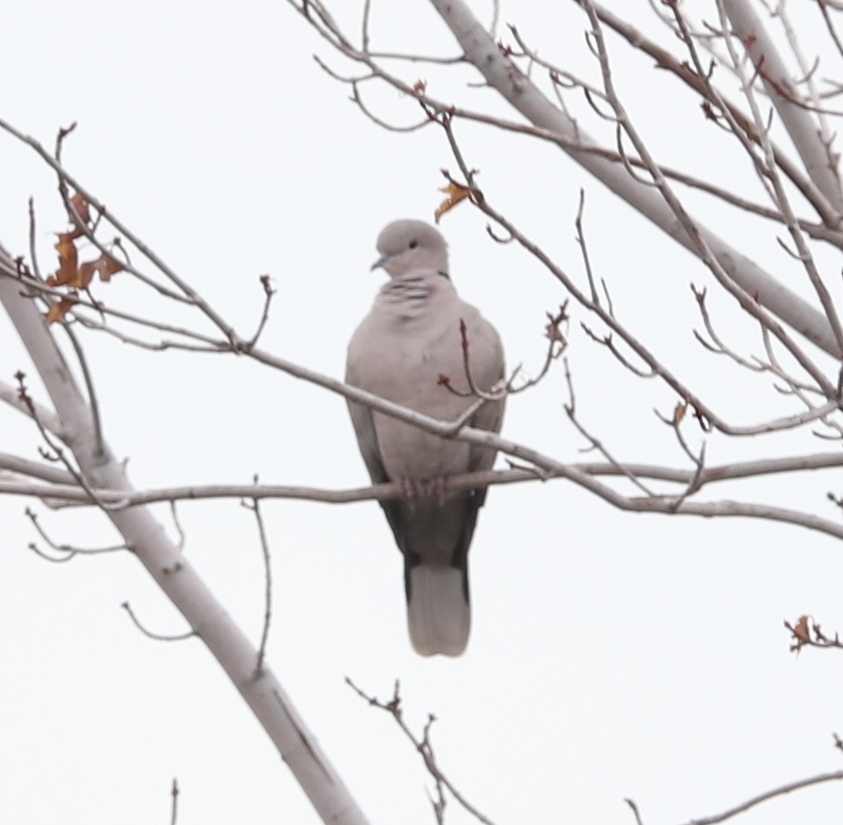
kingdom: Animalia
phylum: Chordata
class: Aves
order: Columbiformes
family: Columbidae
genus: Streptopelia
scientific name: Streptopelia decaocto
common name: Eurasian collared dove
